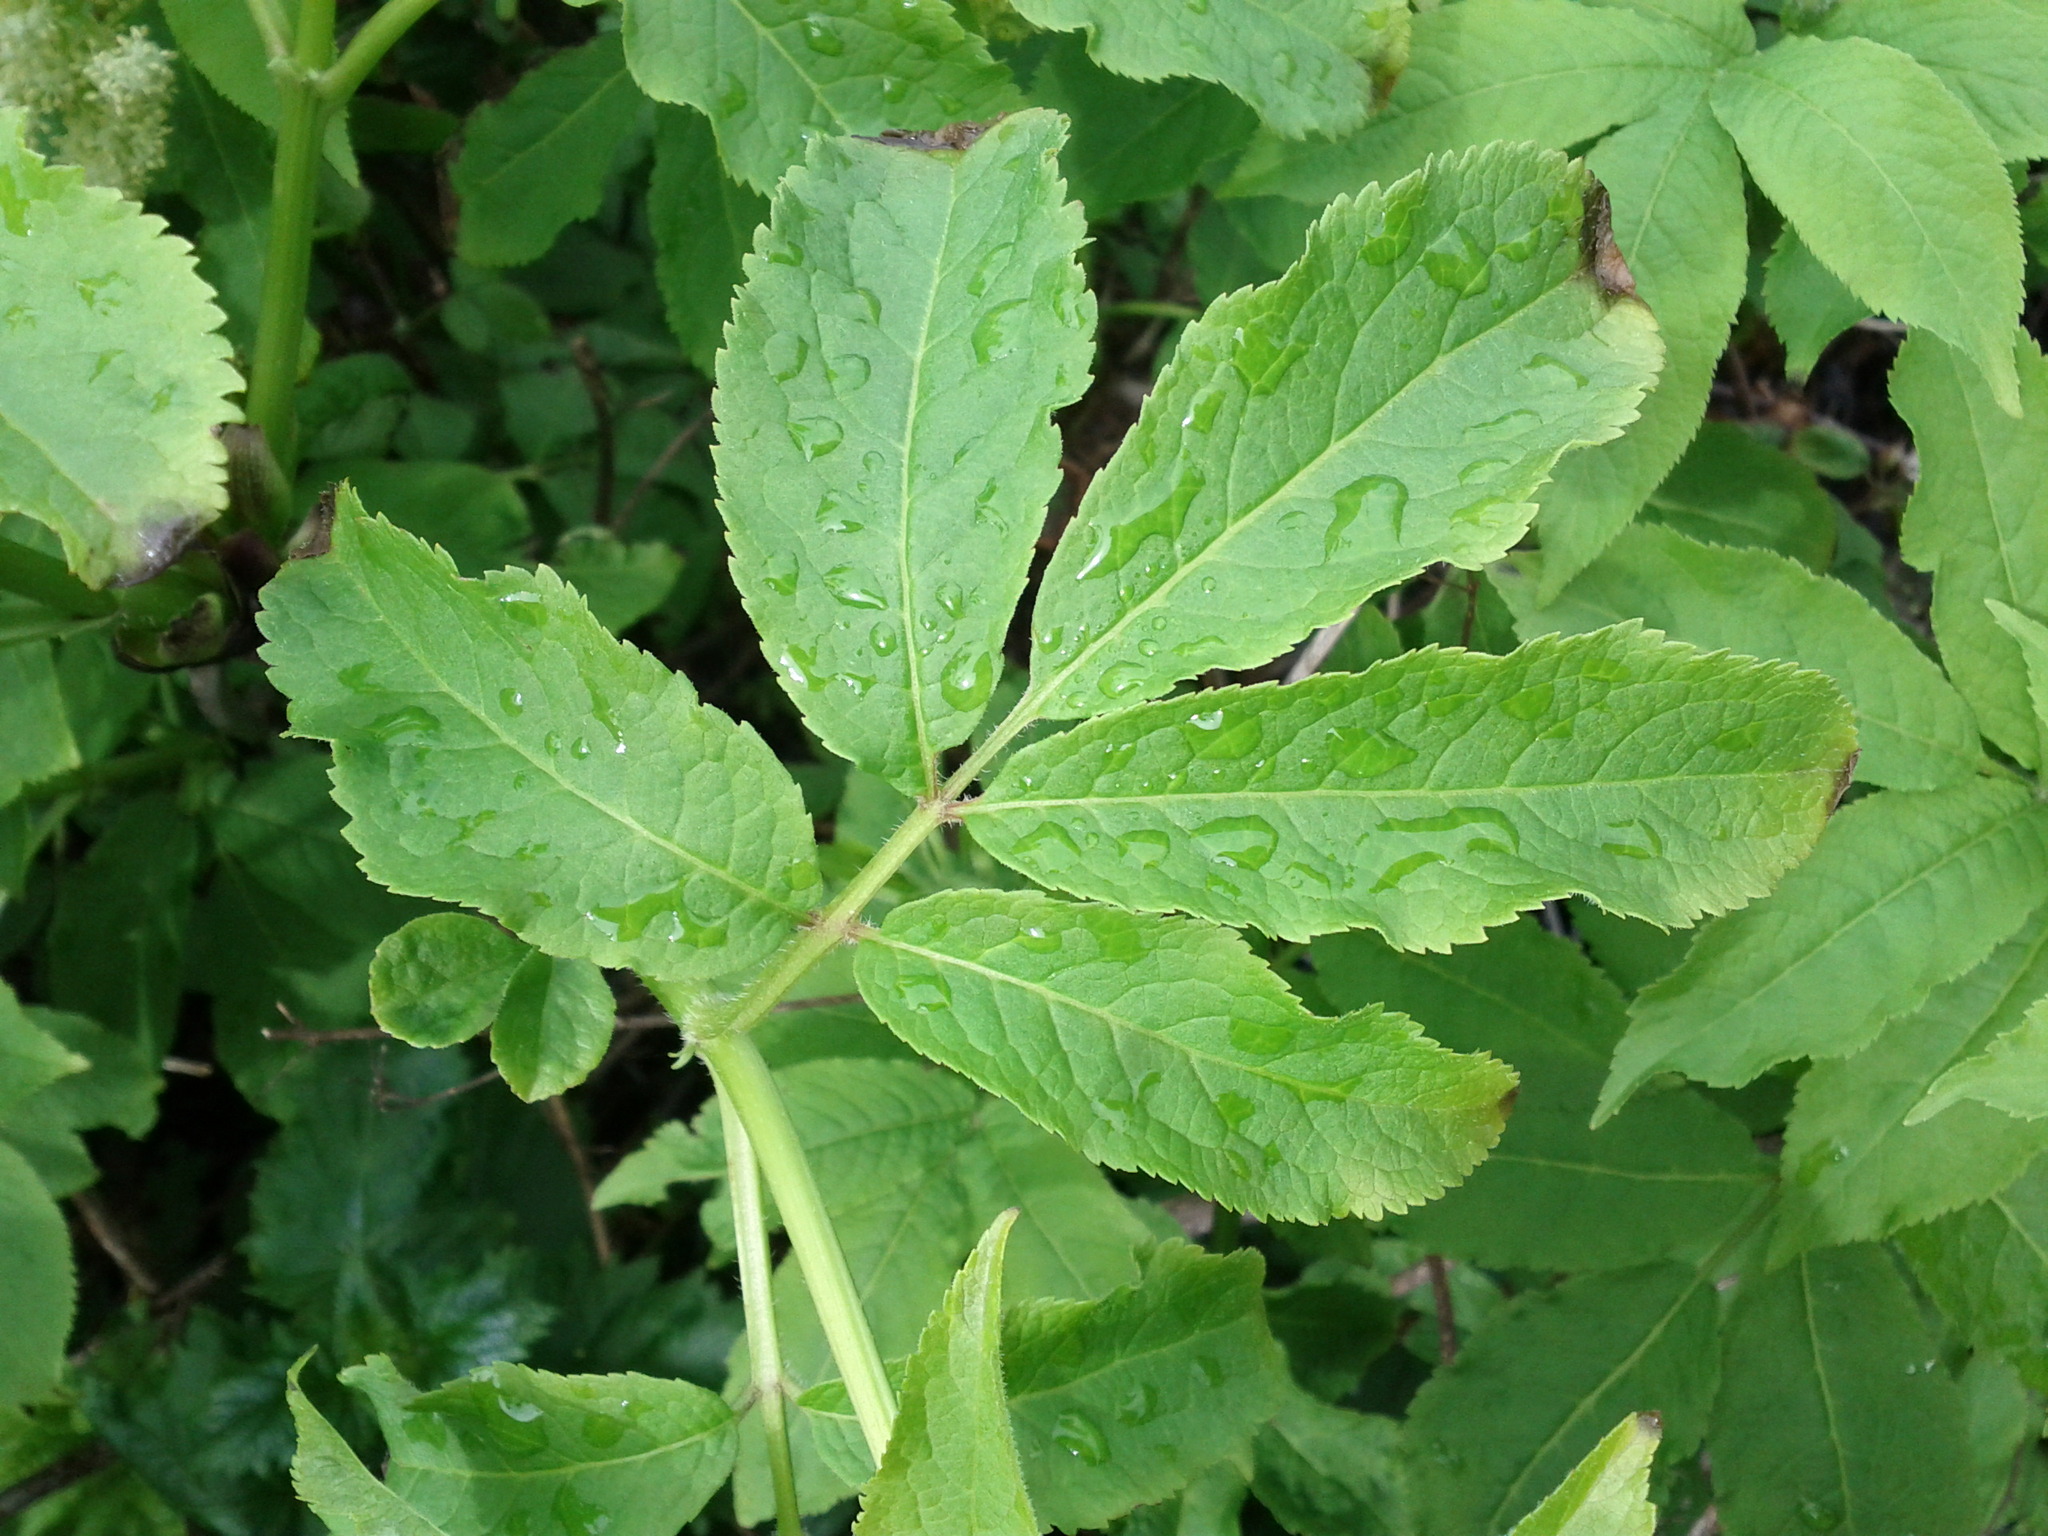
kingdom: Plantae
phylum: Tracheophyta
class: Magnoliopsida
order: Dipsacales
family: Viburnaceae
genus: Sambucus
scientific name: Sambucus racemosa
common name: Red-berried elder
